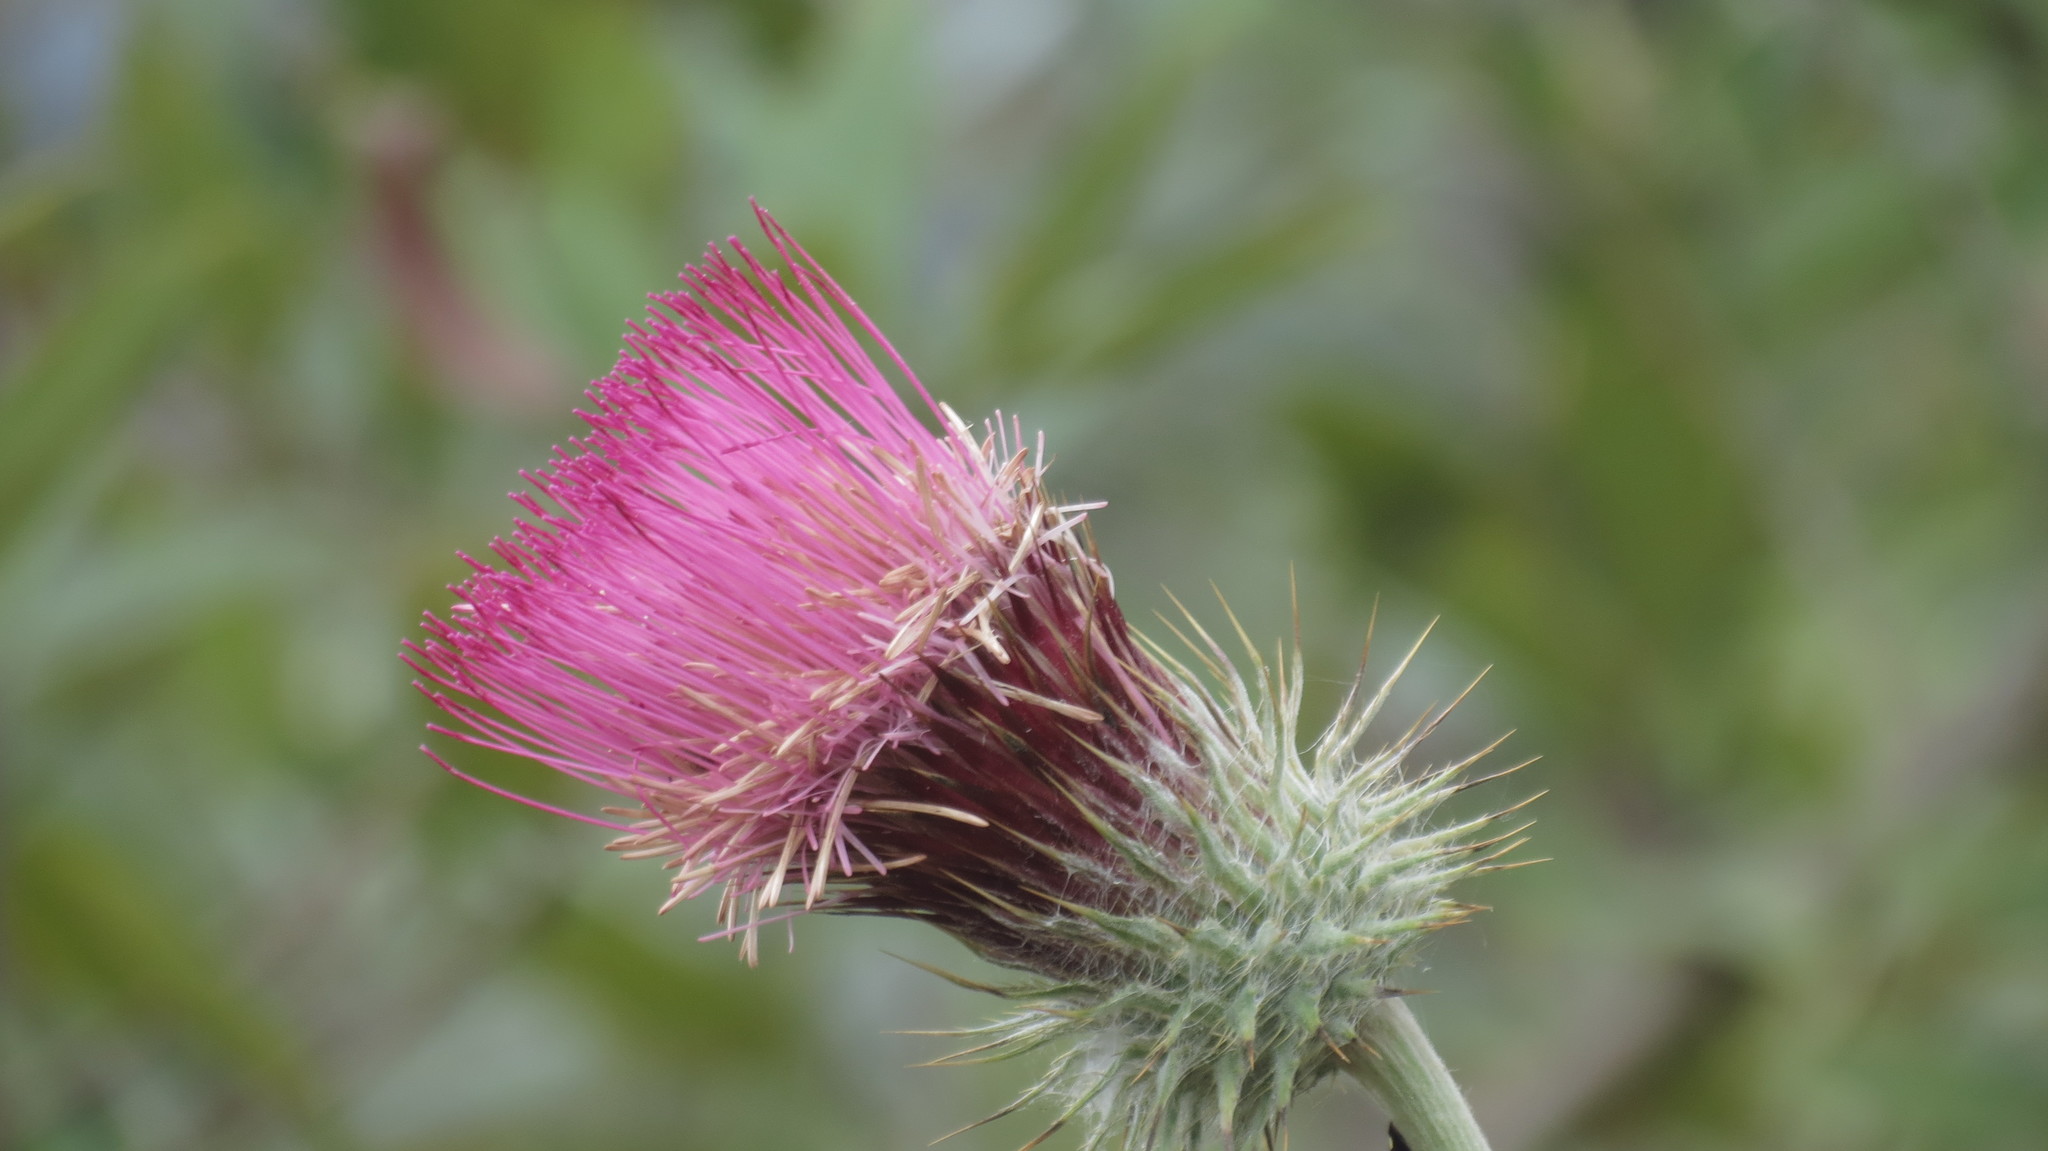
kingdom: Plantae
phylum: Tracheophyta
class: Magnoliopsida
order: Asterales
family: Asteraceae
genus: Cirsium
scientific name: Cirsium subcoriaceum
